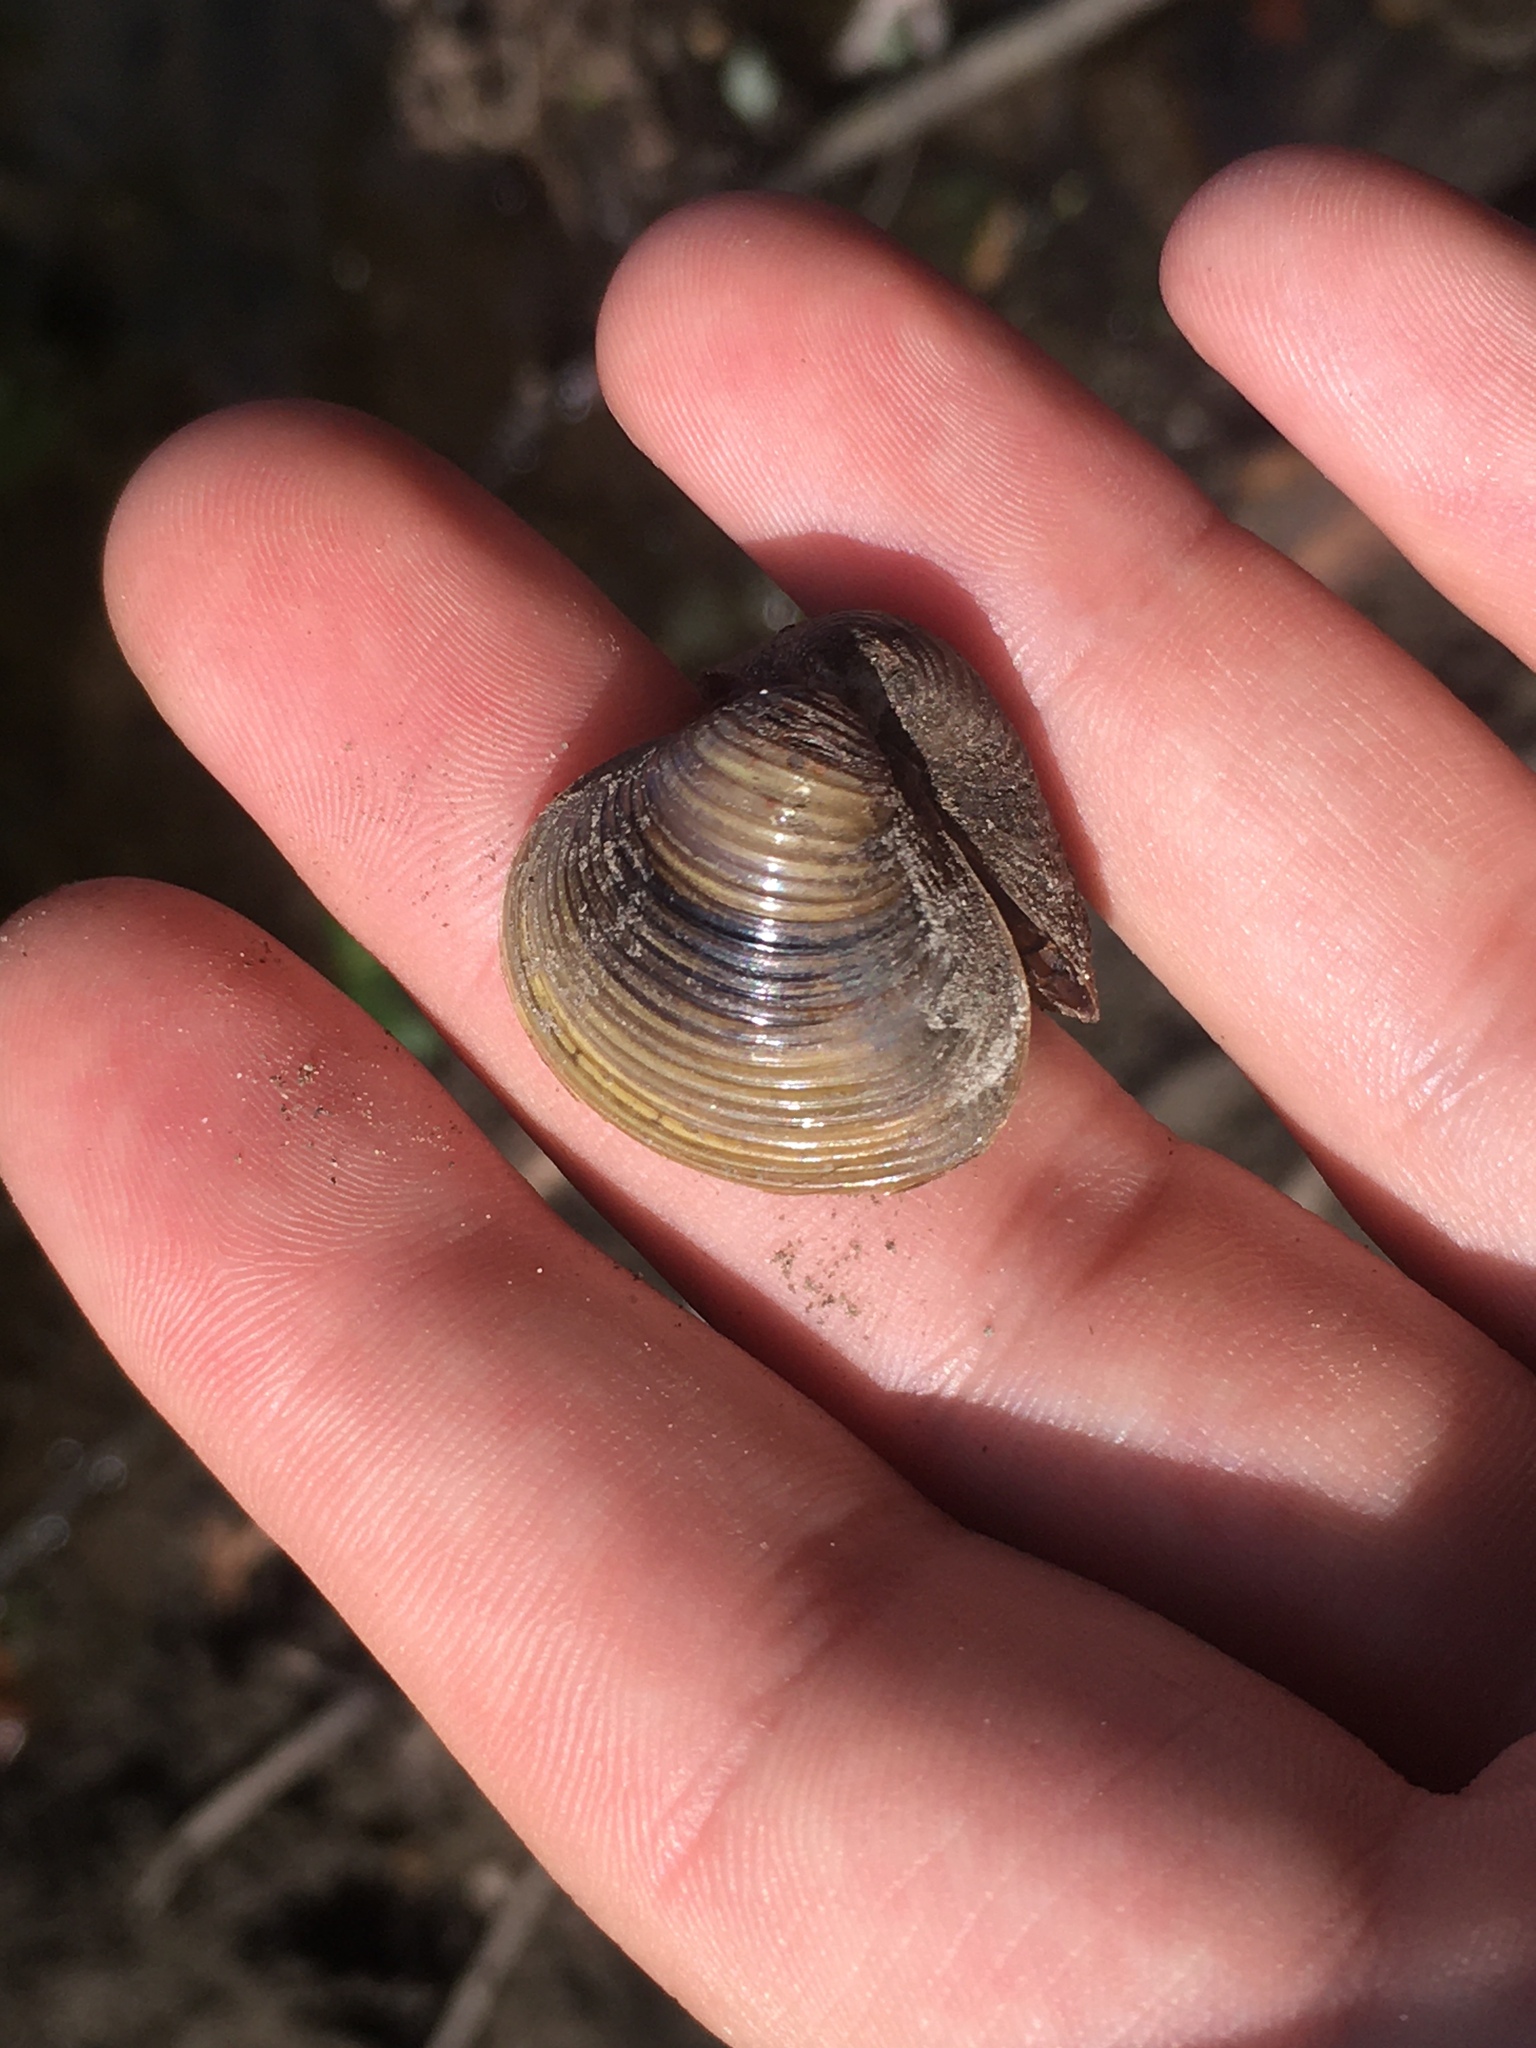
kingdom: Animalia
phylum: Mollusca
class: Bivalvia
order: Venerida
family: Cyrenidae
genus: Corbicula
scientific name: Corbicula fluminea
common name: Asian clam
